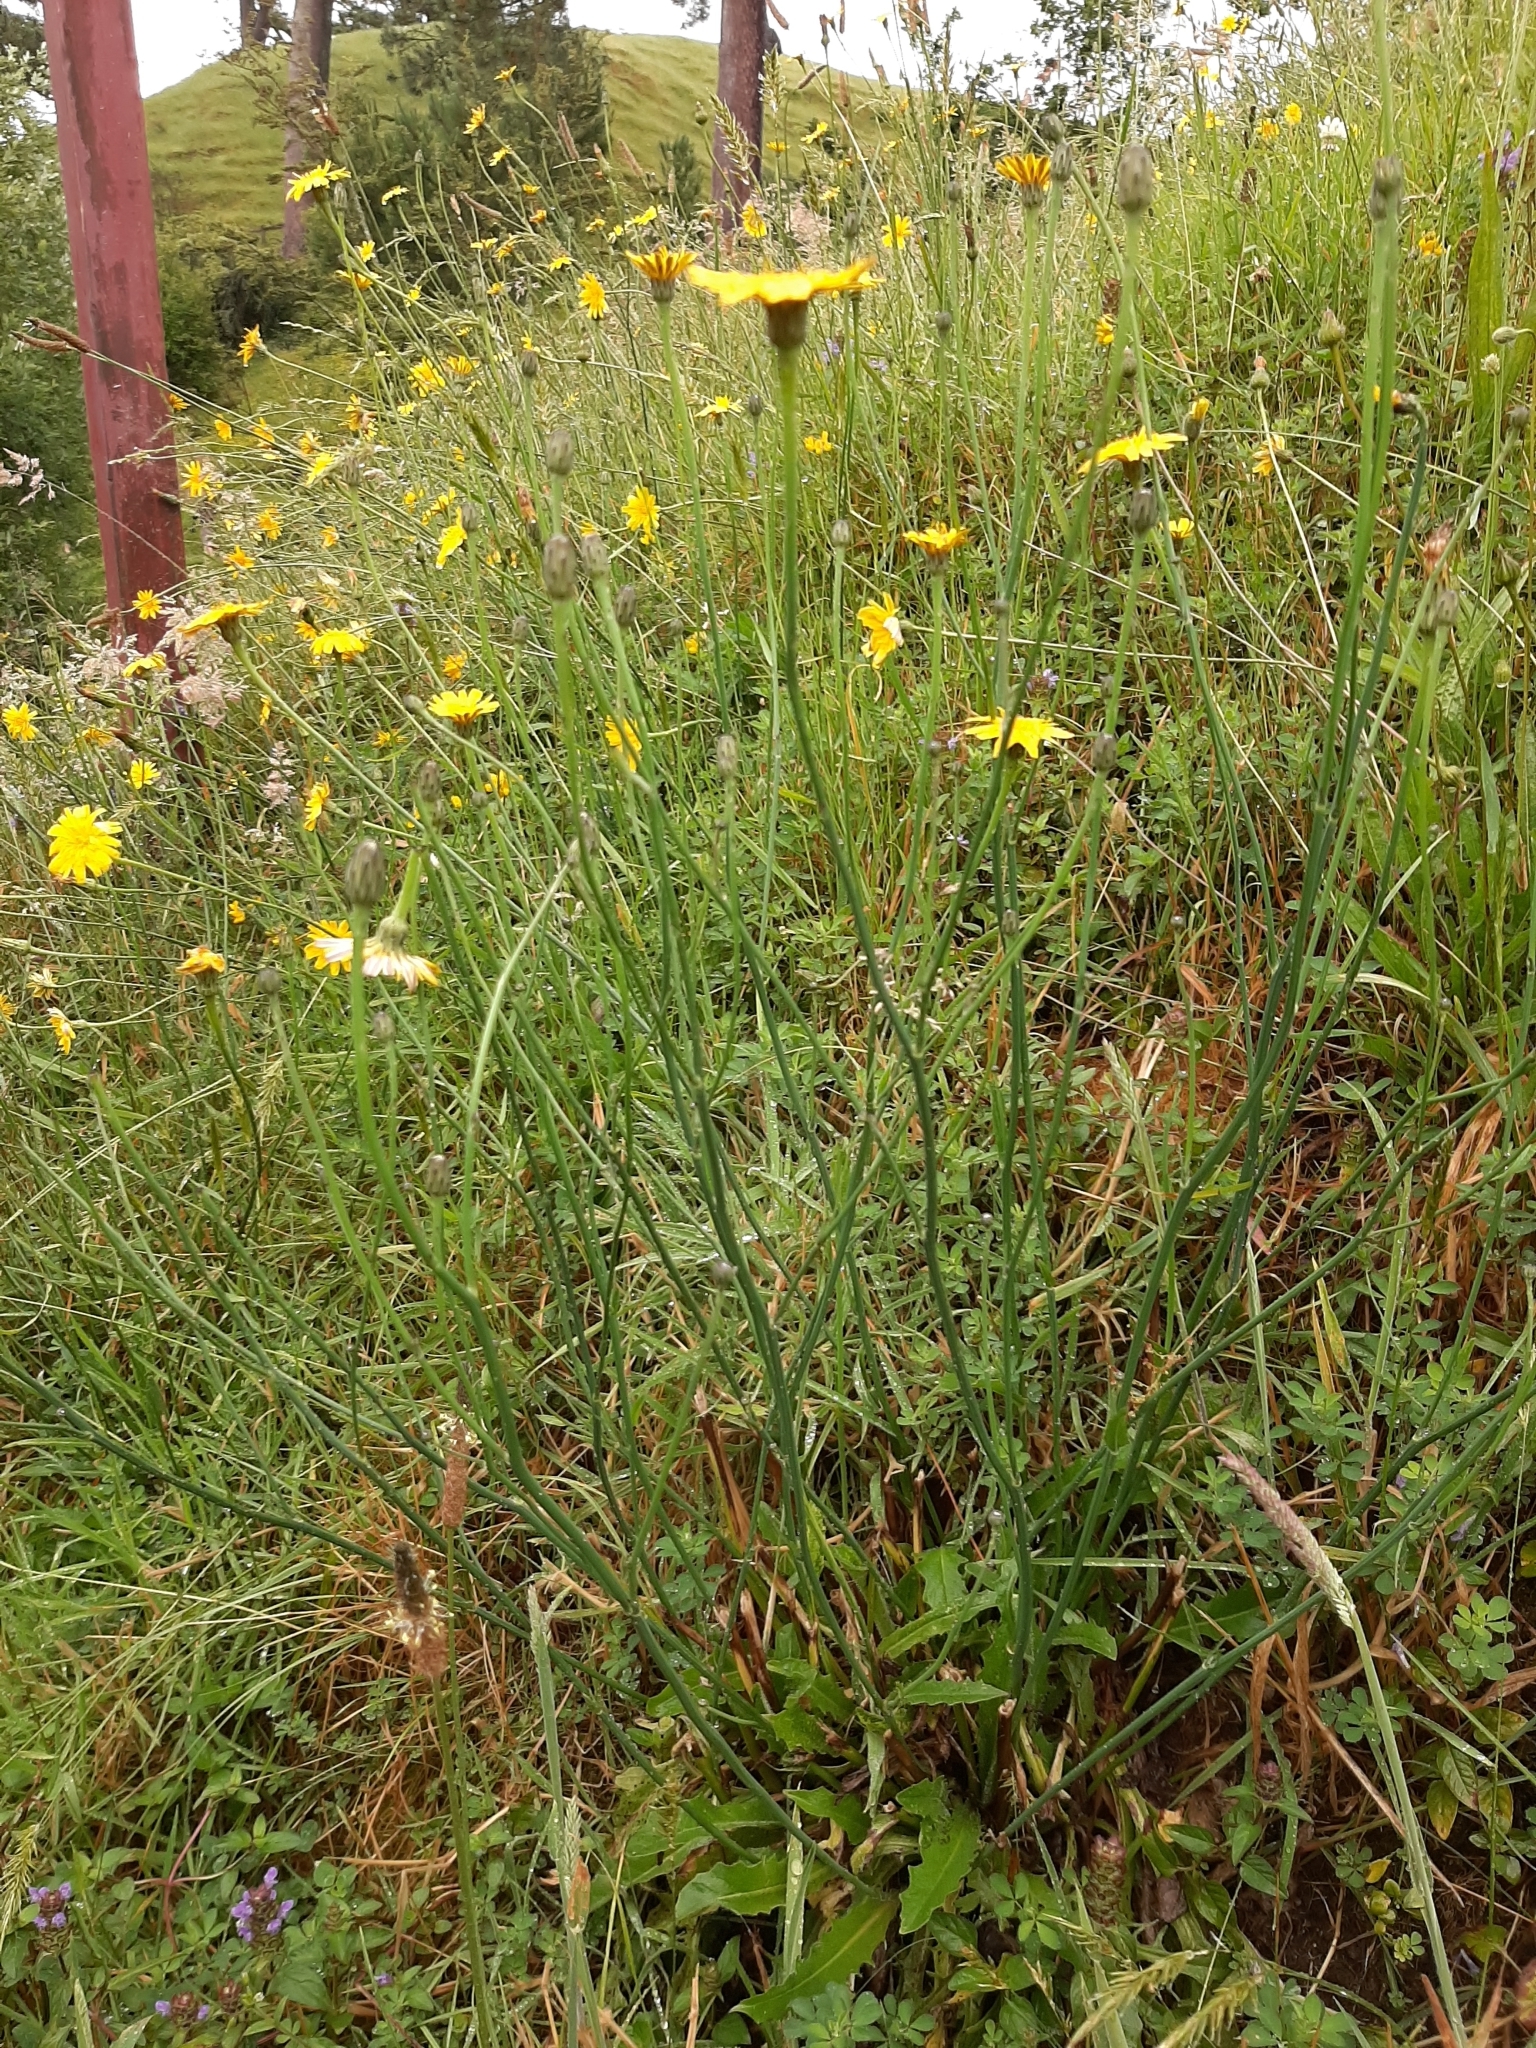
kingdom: Plantae
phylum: Tracheophyta
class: Magnoliopsida
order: Asterales
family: Asteraceae
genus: Hypochaeris
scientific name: Hypochaeris radicata
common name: Flatweed
